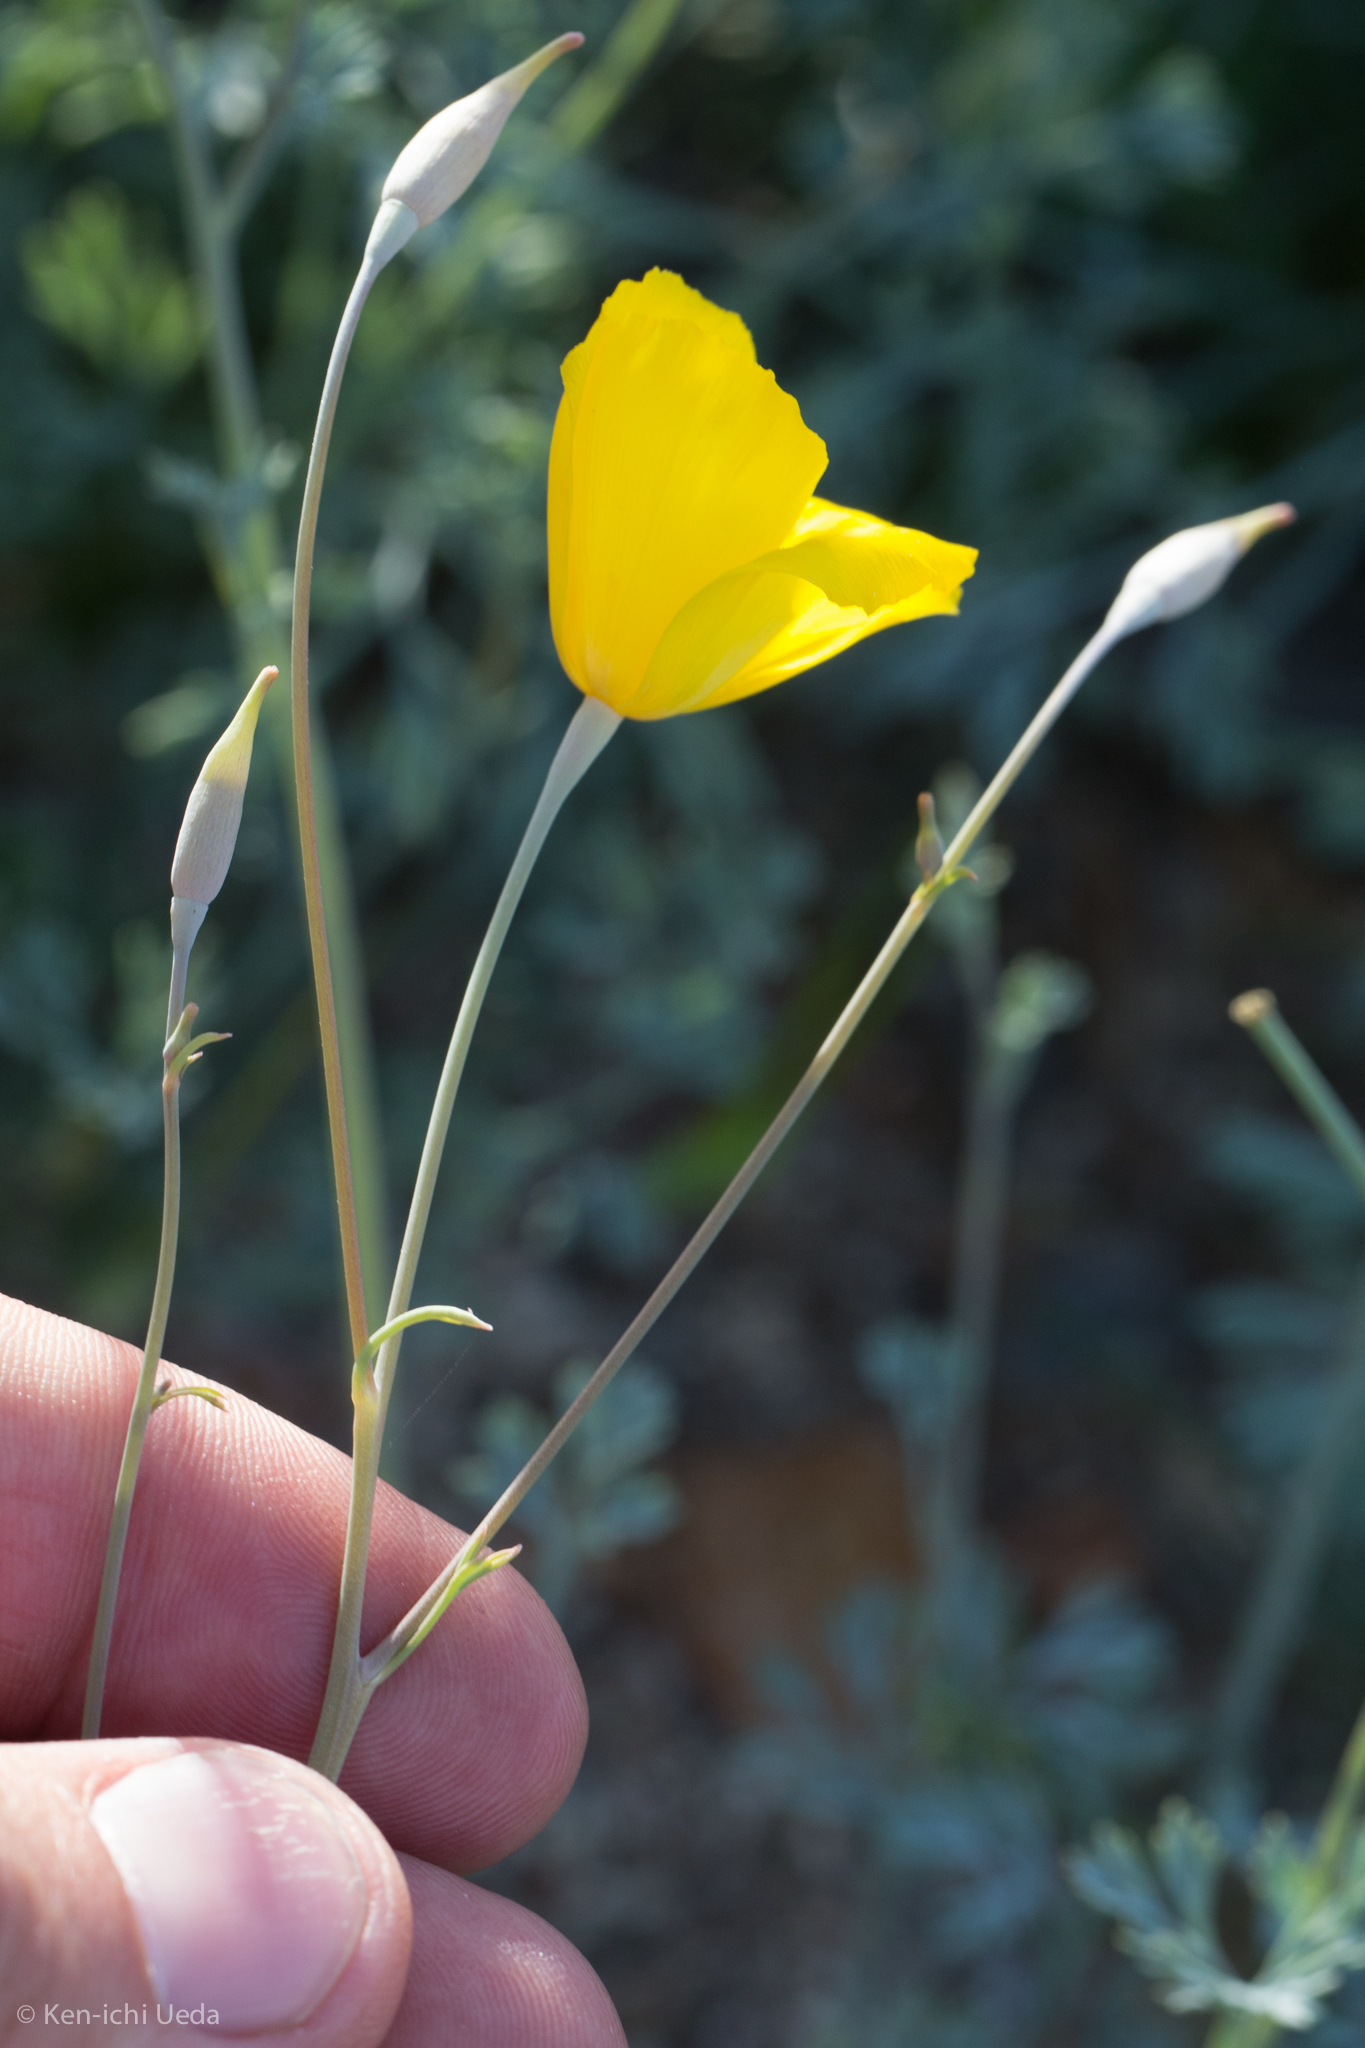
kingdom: Plantae
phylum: Tracheophyta
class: Magnoliopsida
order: Ranunculales
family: Papaveraceae
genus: Eschscholzia
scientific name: Eschscholzia parishii
